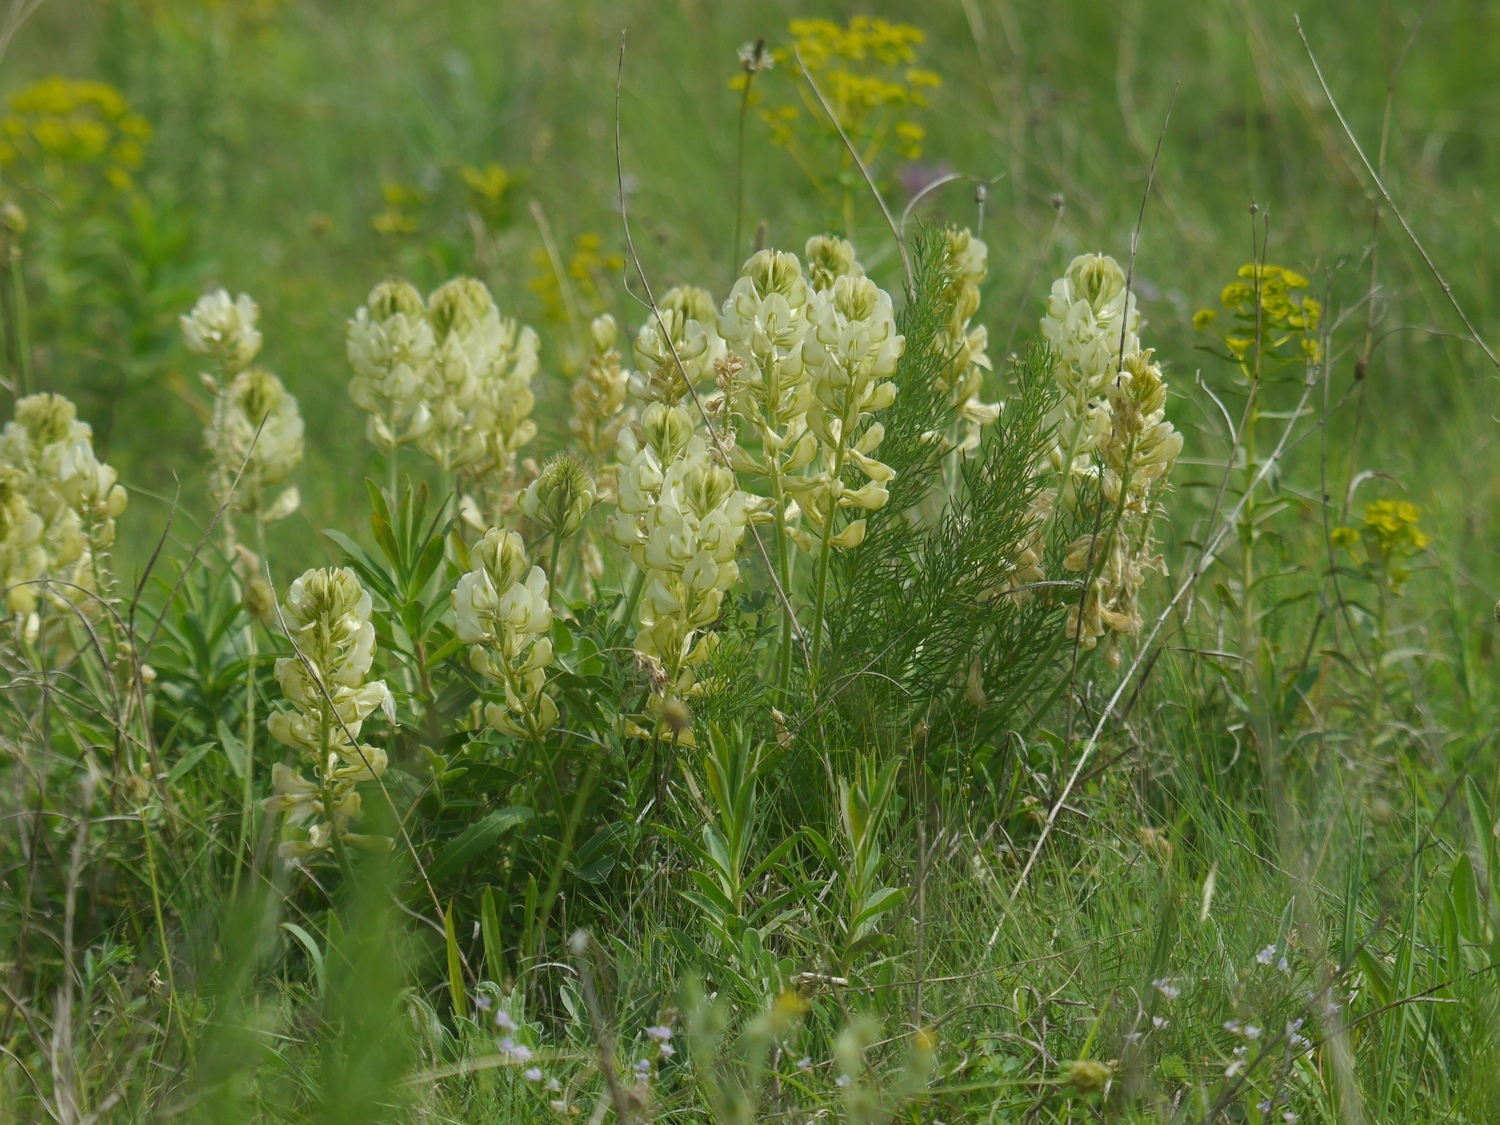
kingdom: Plantae
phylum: Tracheophyta
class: Magnoliopsida
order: Fabales
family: Fabaceae
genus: Hedysarum
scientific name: Hedysarum grandiflorum
